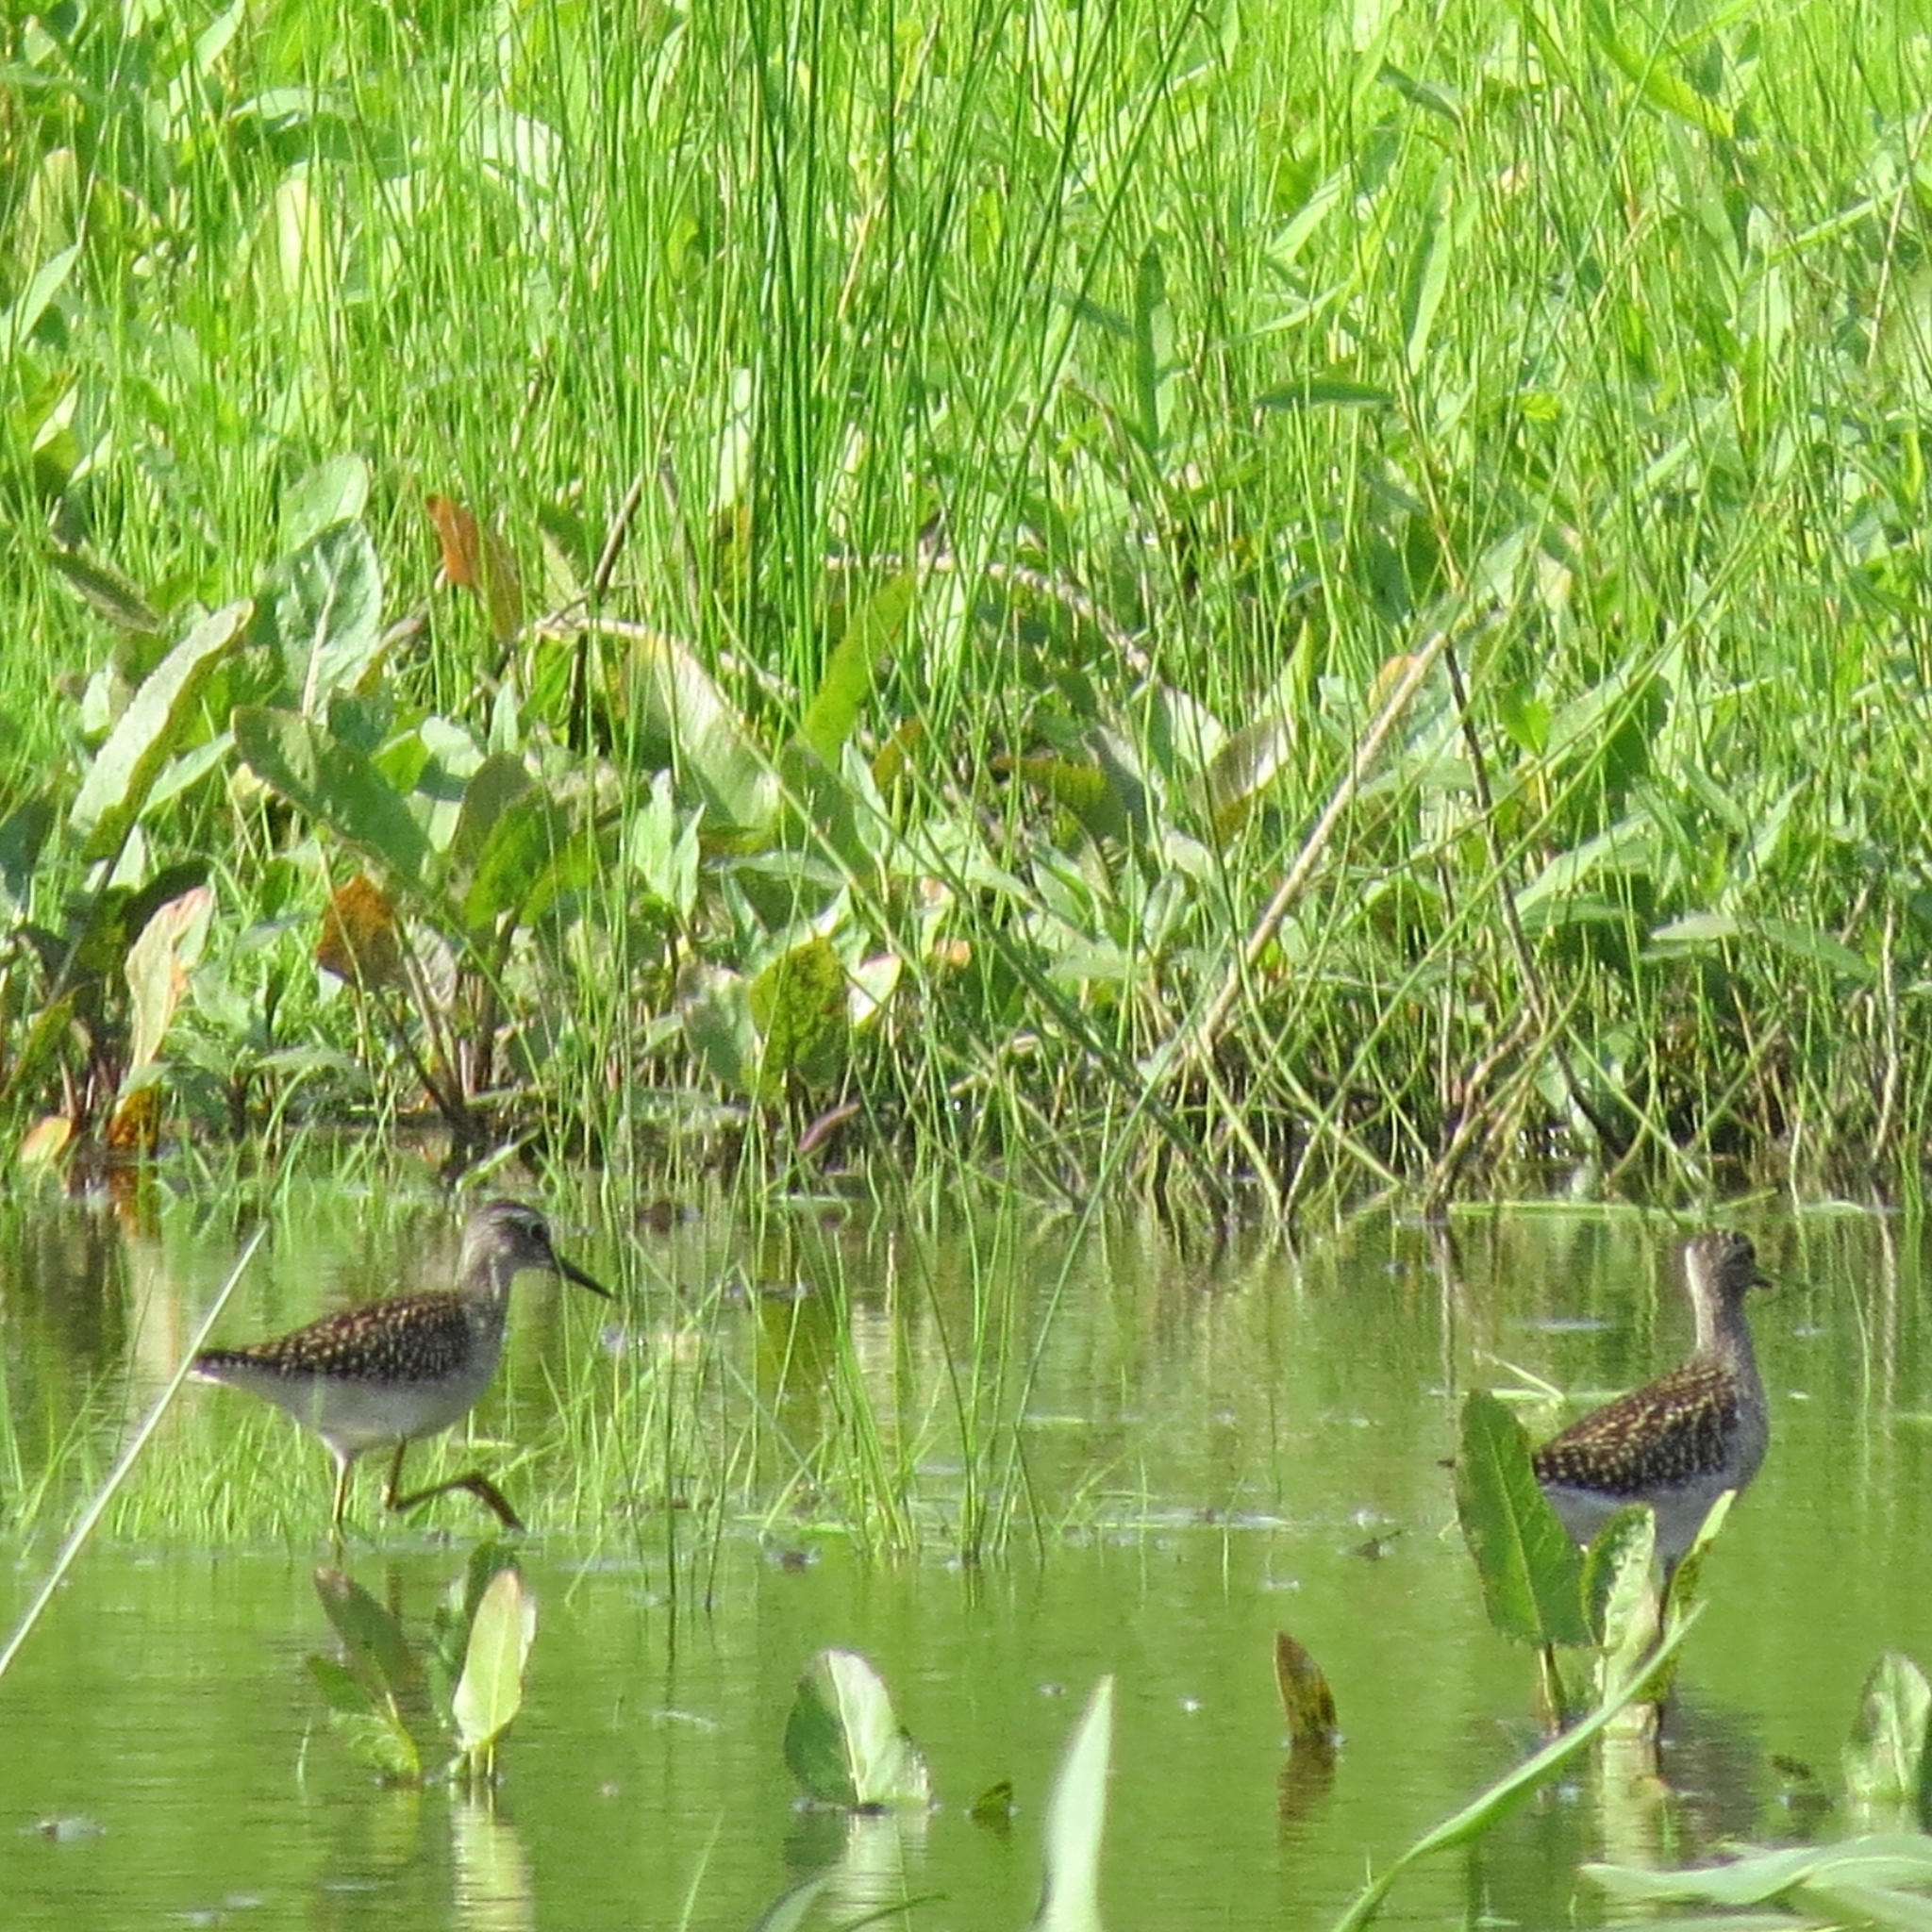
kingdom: Animalia
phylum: Chordata
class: Aves
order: Charadriiformes
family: Scolopacidae
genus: Tringa
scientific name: Tringa glareola
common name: Wood sandpiper
